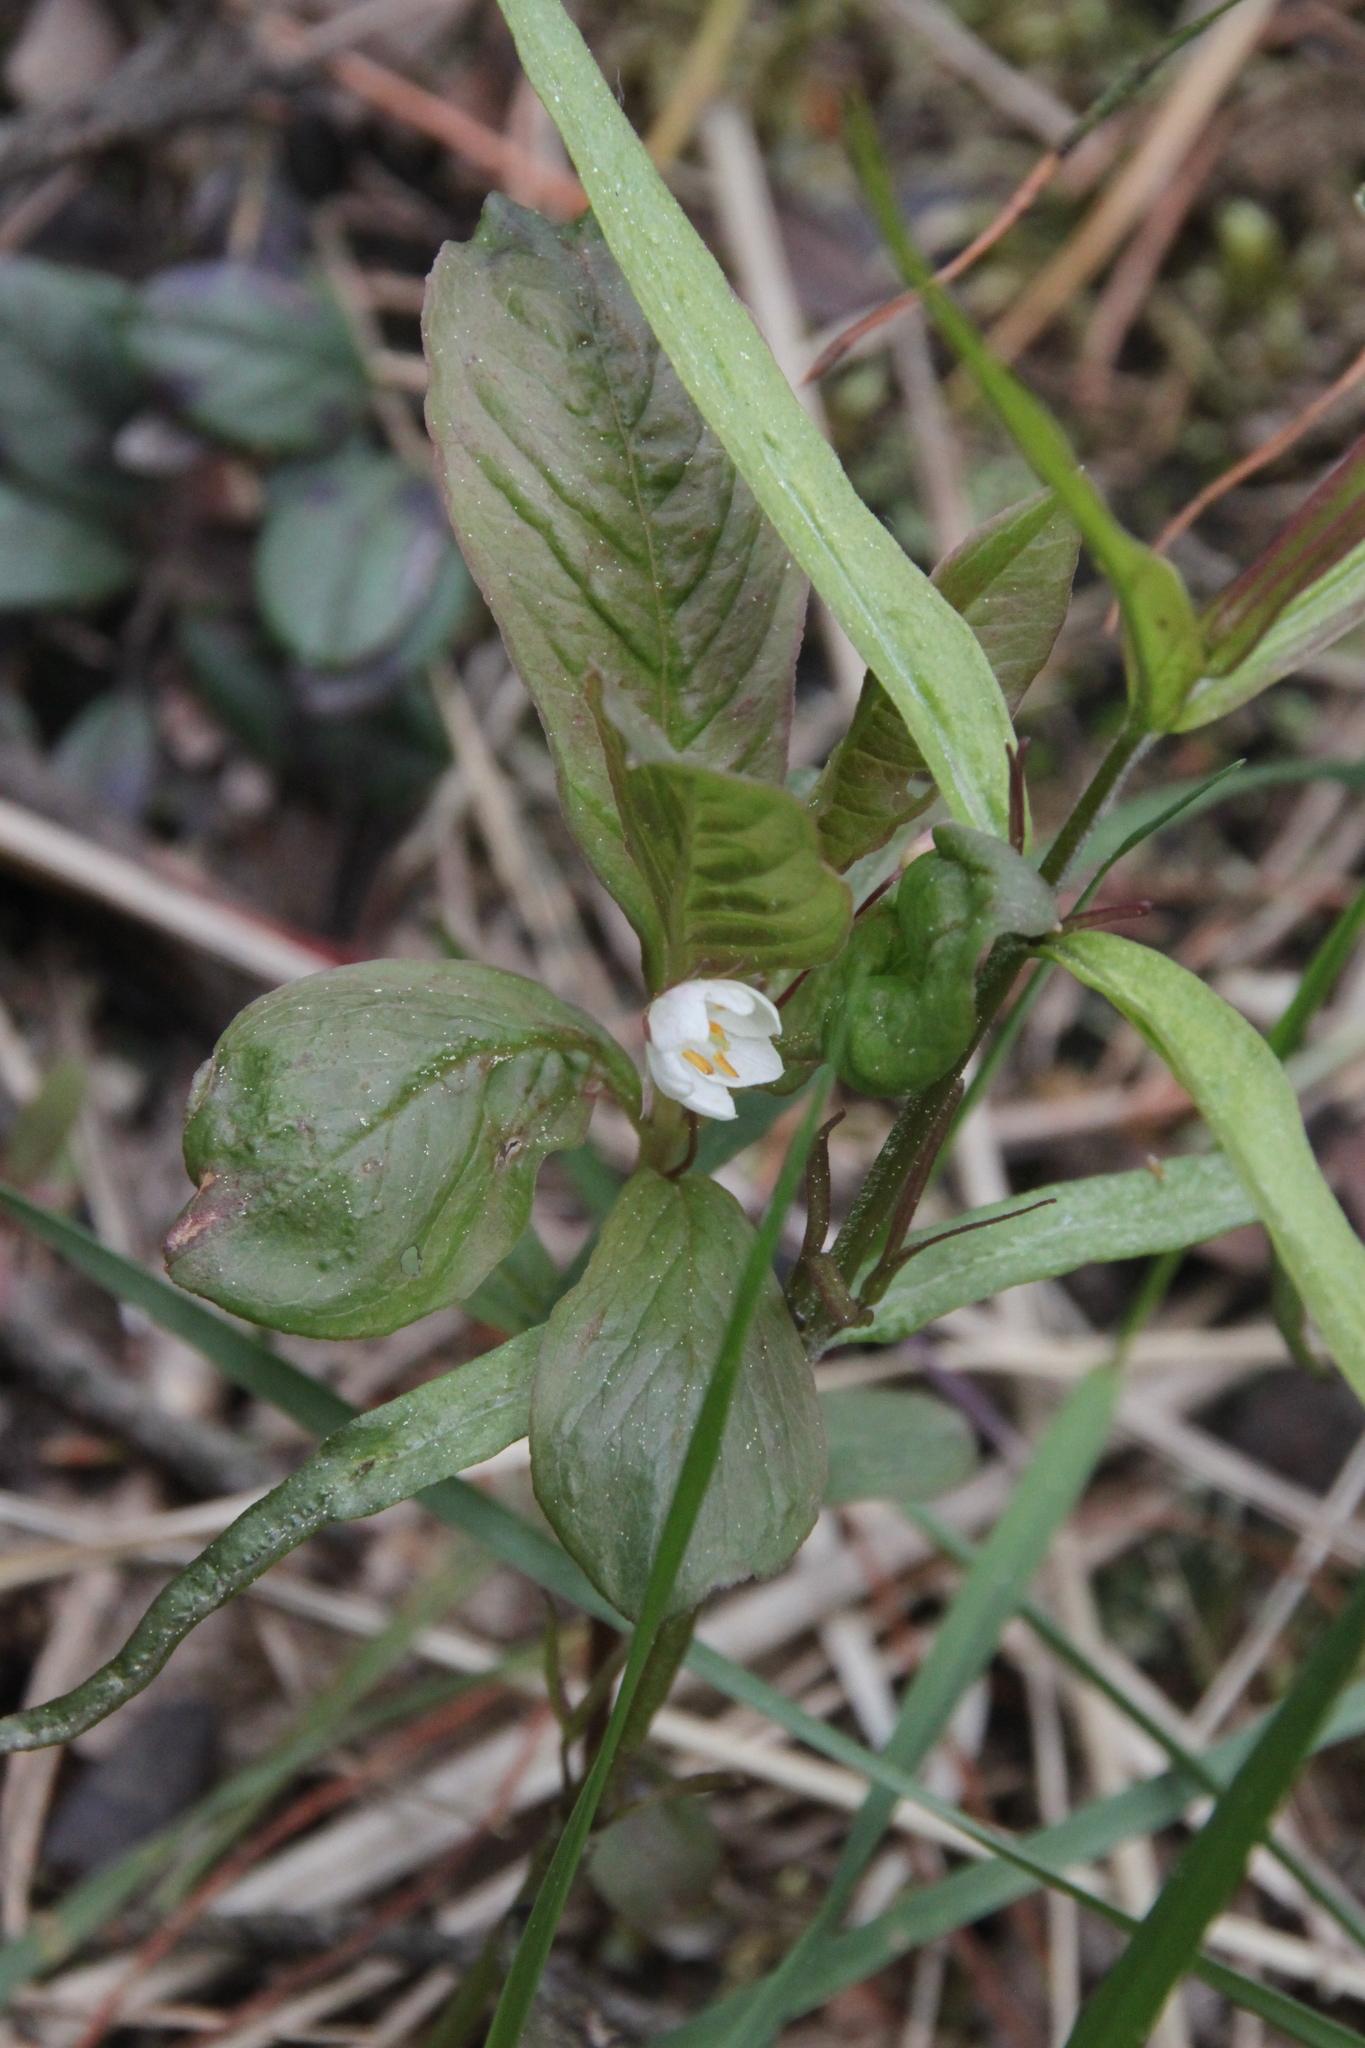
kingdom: Plantae
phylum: Tracheophyta
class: Magnoliopsida
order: Ericales
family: Primulaceae
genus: Lysimachia
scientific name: Lysimachia europaea
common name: Arctic starflower
